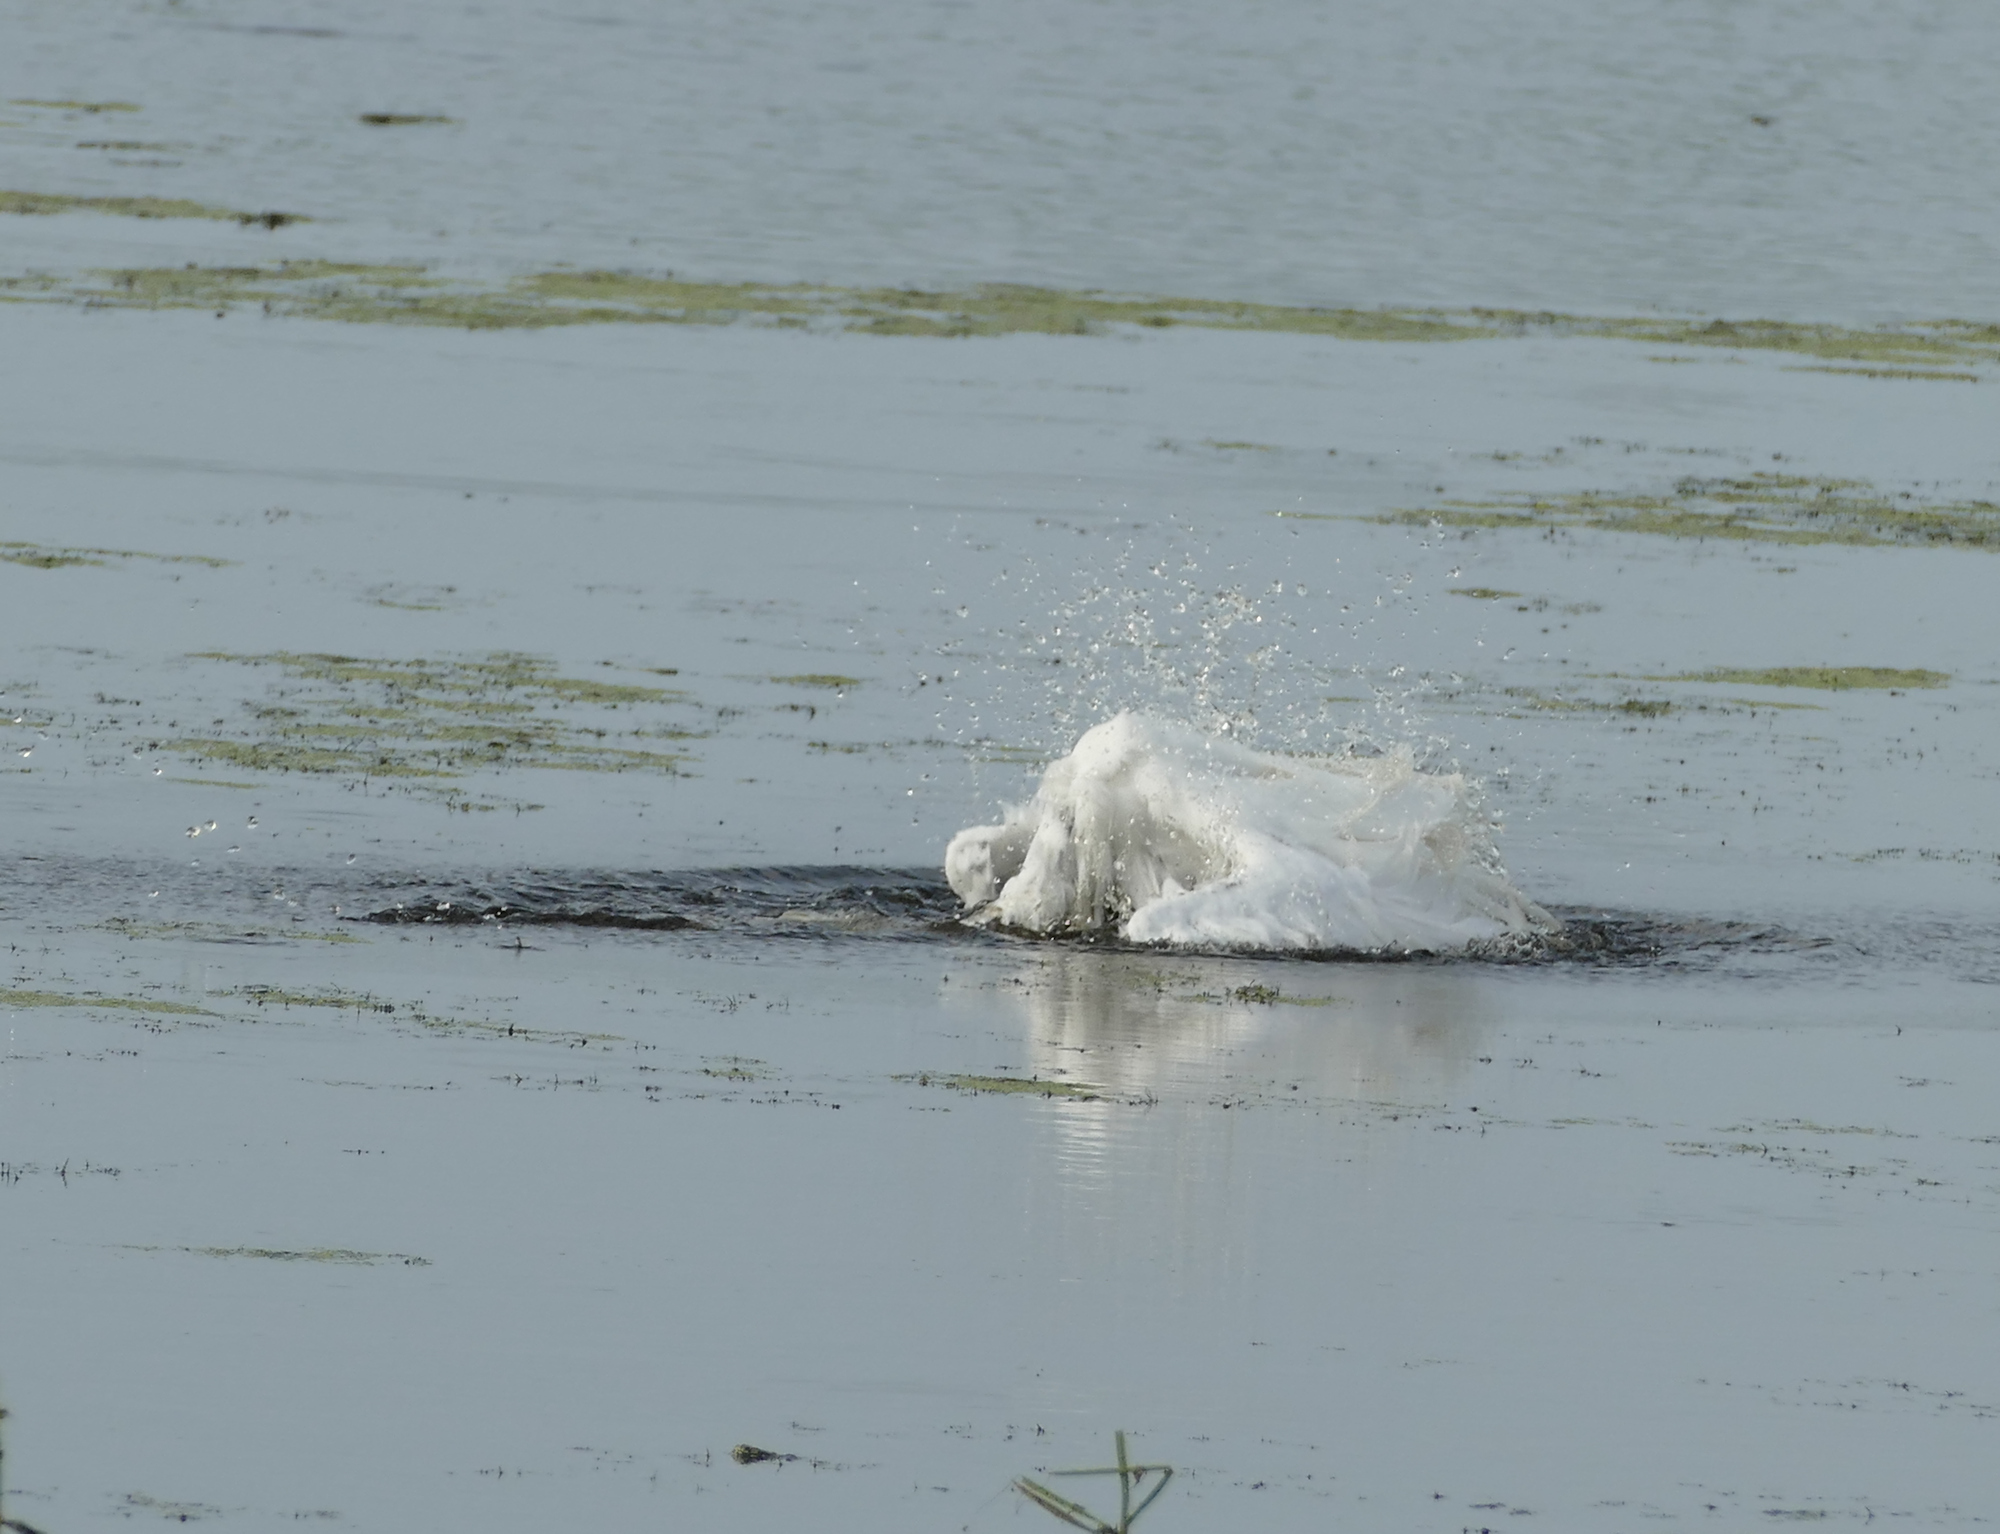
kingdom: Animalia
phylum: Chordata
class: Aves
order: Pelecaniformes
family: Ardeidae
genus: Ardea
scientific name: Ardea alba
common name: Great egret
